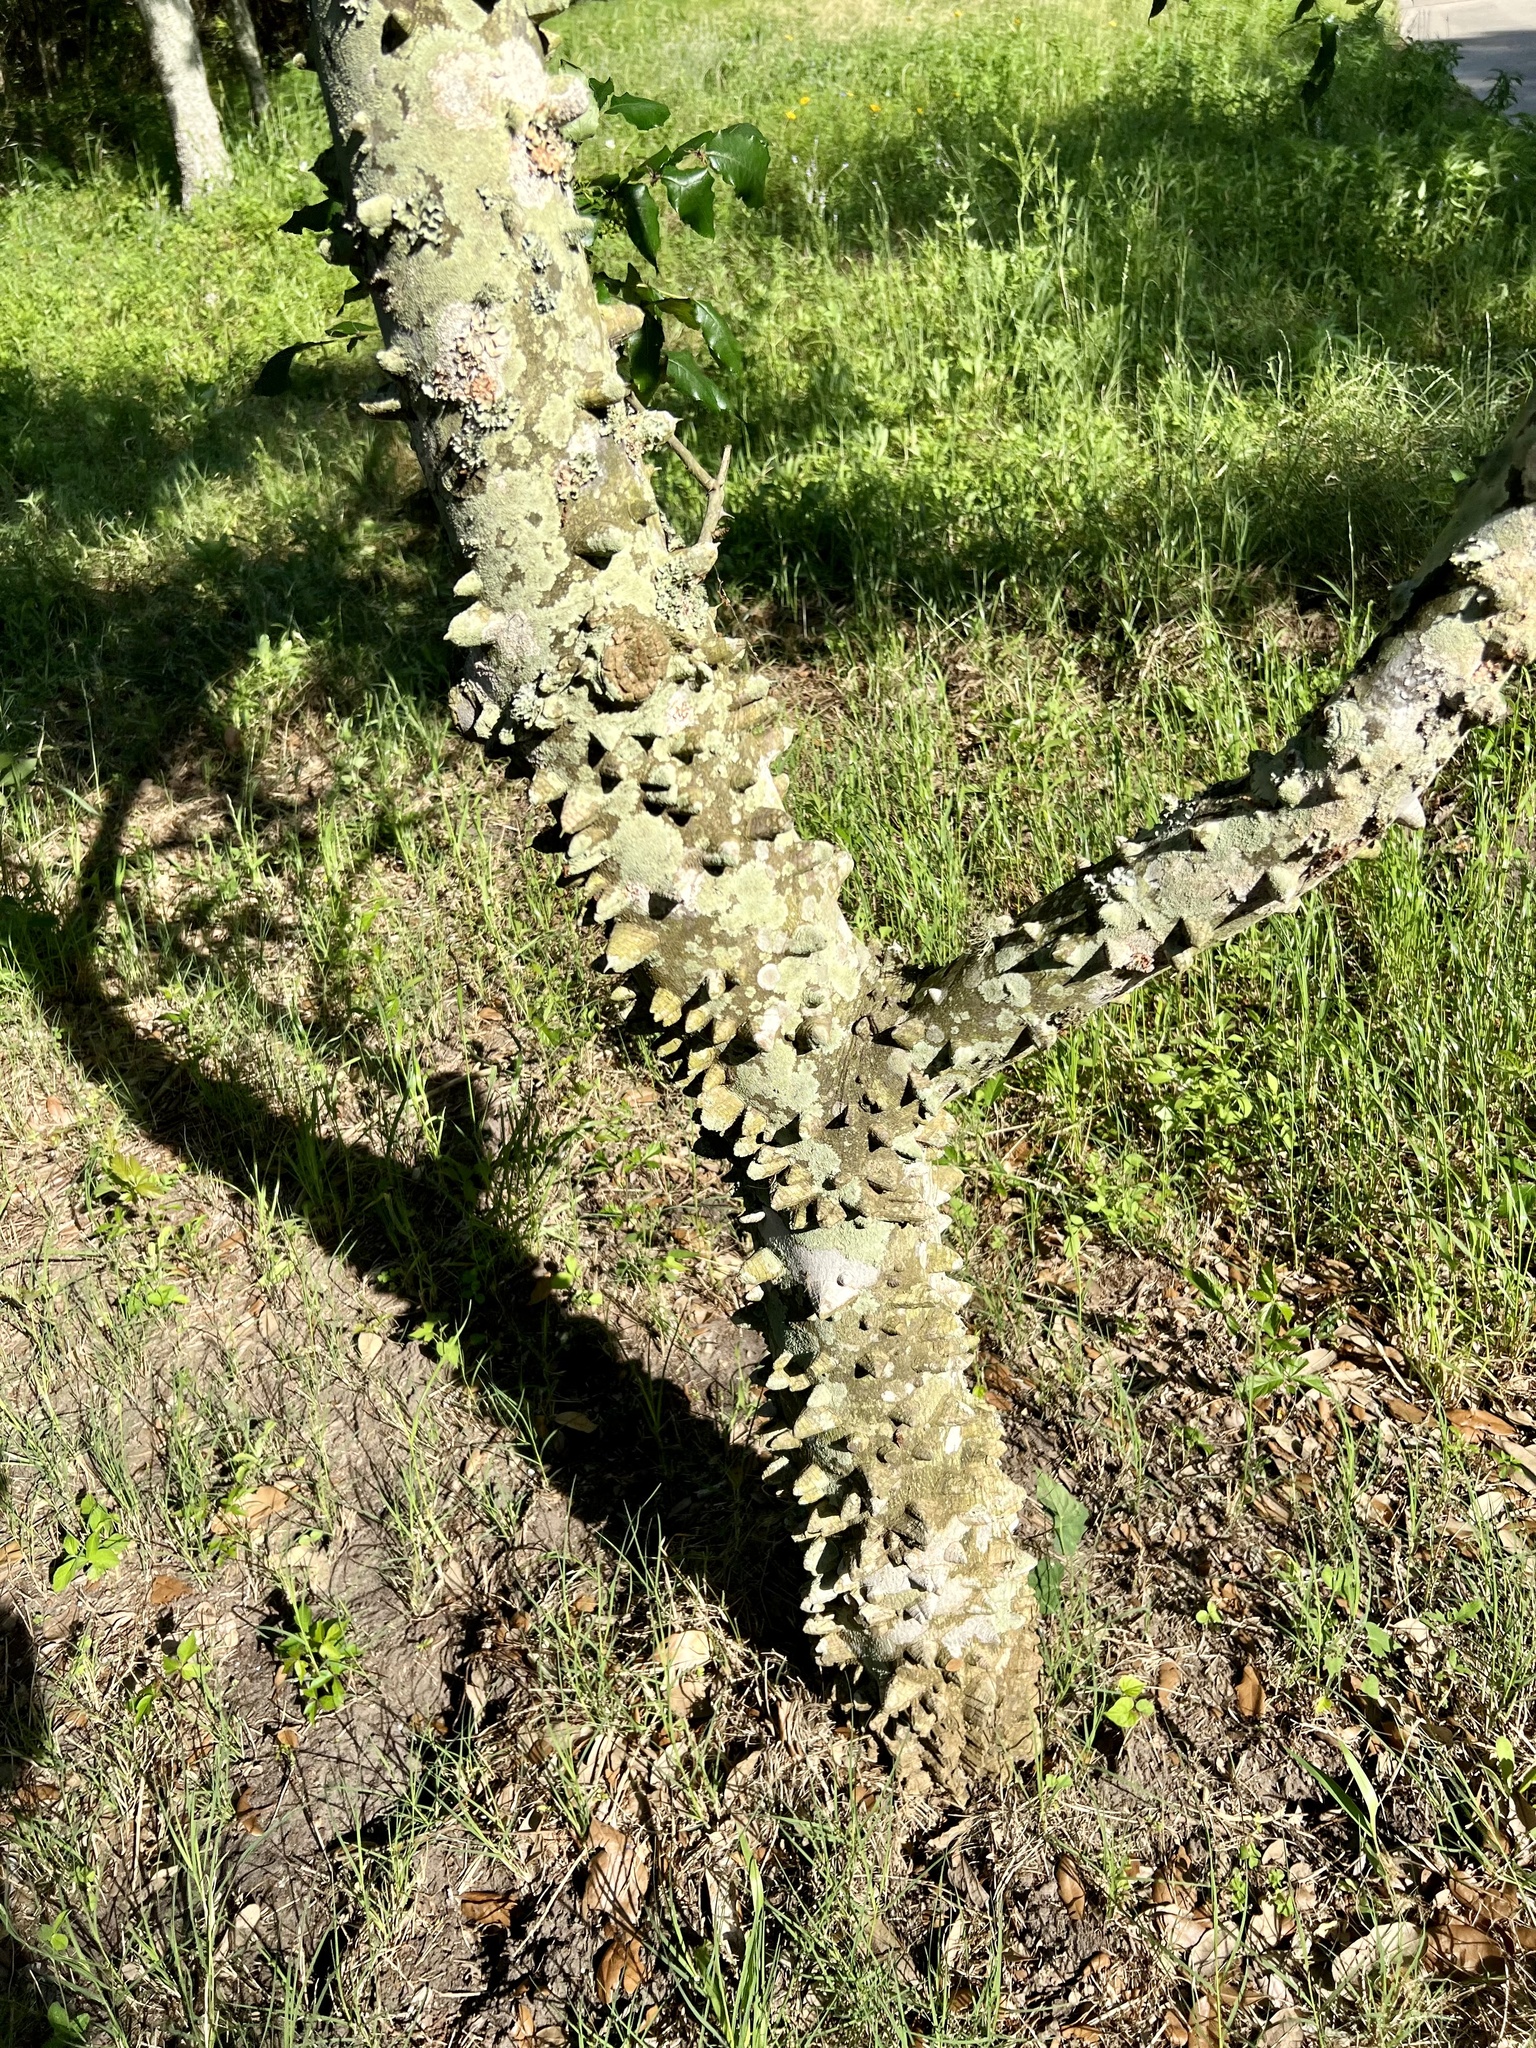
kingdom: Plantae
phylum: Tracheophyta
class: Magnoliopsida
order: Sapindales
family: Rutaceae
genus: Zanthoxylum
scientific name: Zanthoxylum clava-herculis
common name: Hercules'-club
